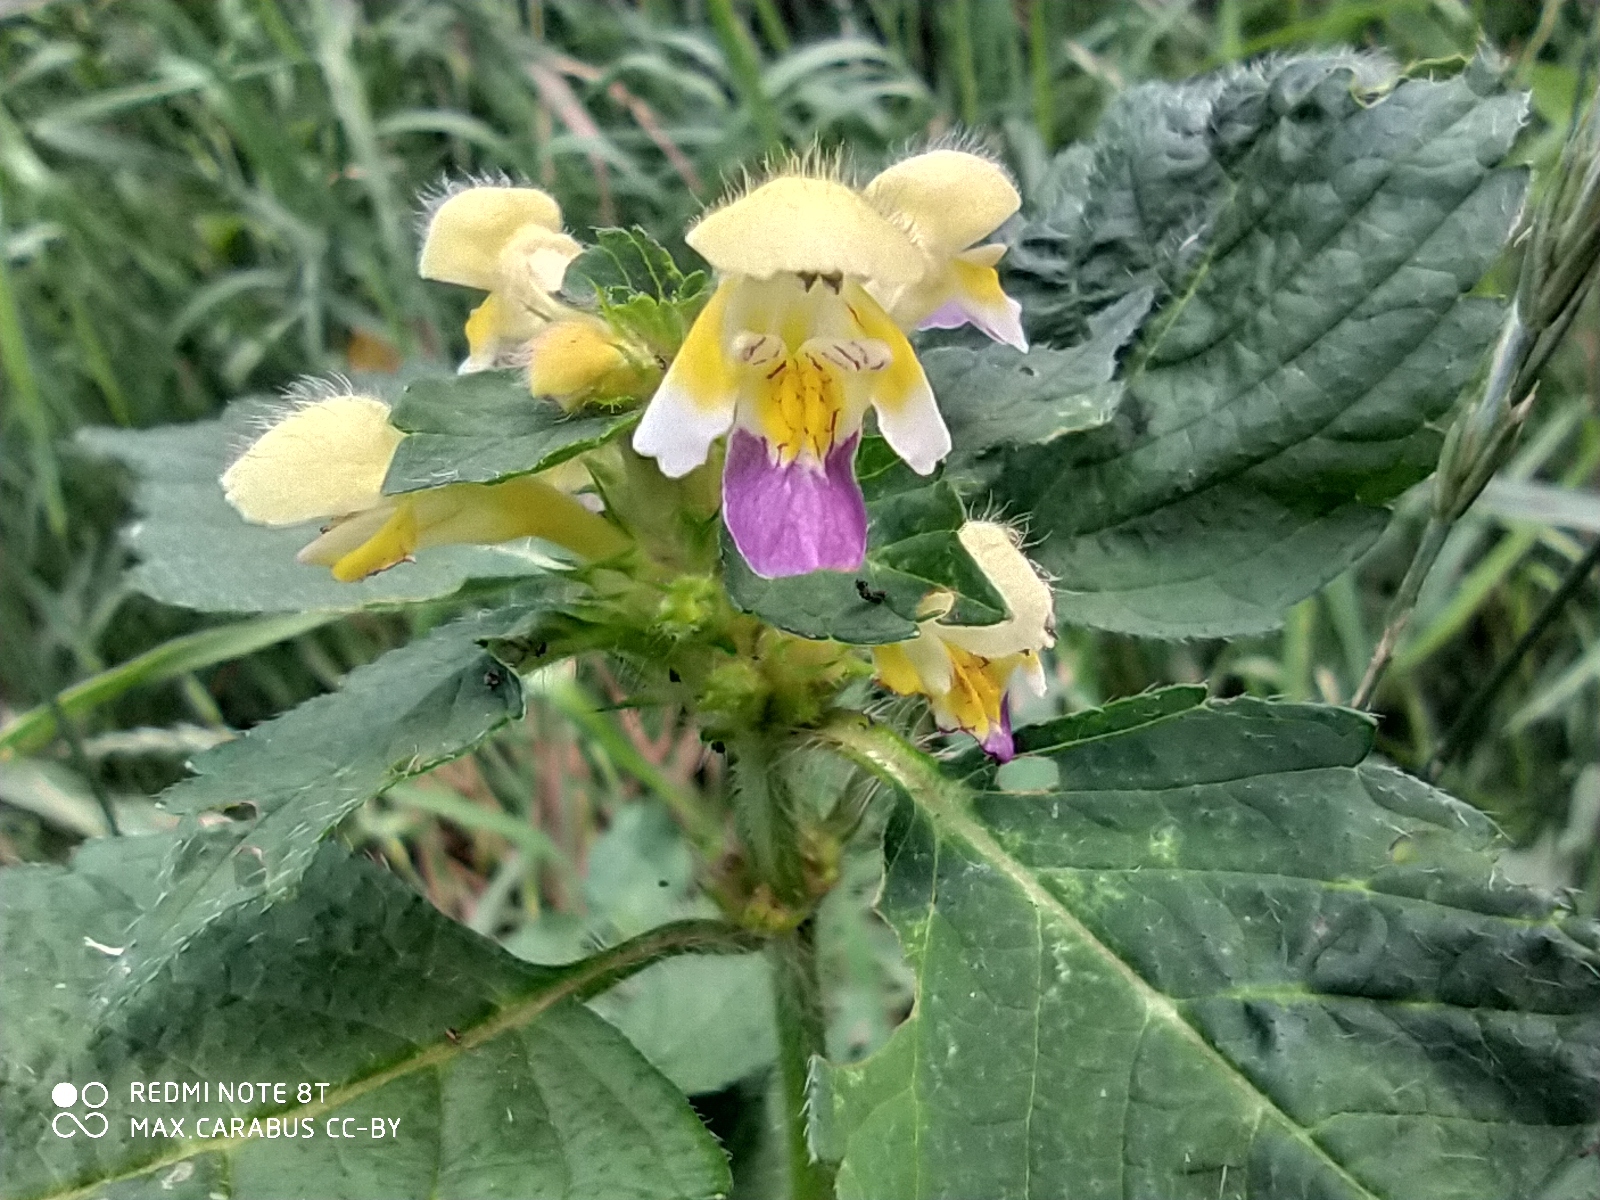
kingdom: Plantae
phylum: Tracheophyta
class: Magnoliopsida
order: Lamiales
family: Lamiaceae
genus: Galeopsis
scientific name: Galeopsis speciosa
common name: Large-flowered hemp-nettle
